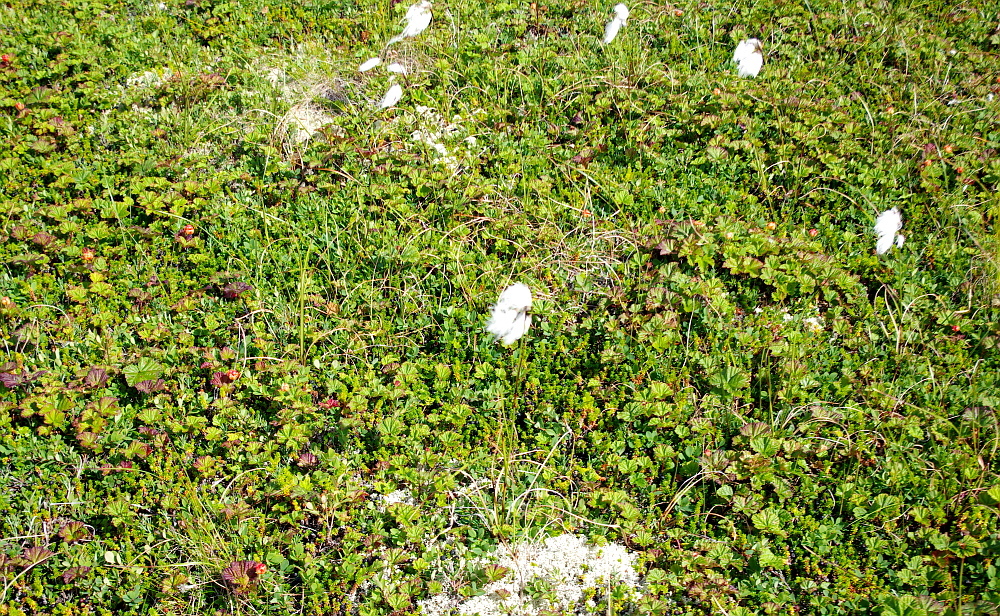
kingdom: Plantae
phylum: Tracheophyta
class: Liliopsida
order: Poales
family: Cyperaceae
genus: Eriophorum
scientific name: Eriophorum angustifolium
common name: Common cottongrass
